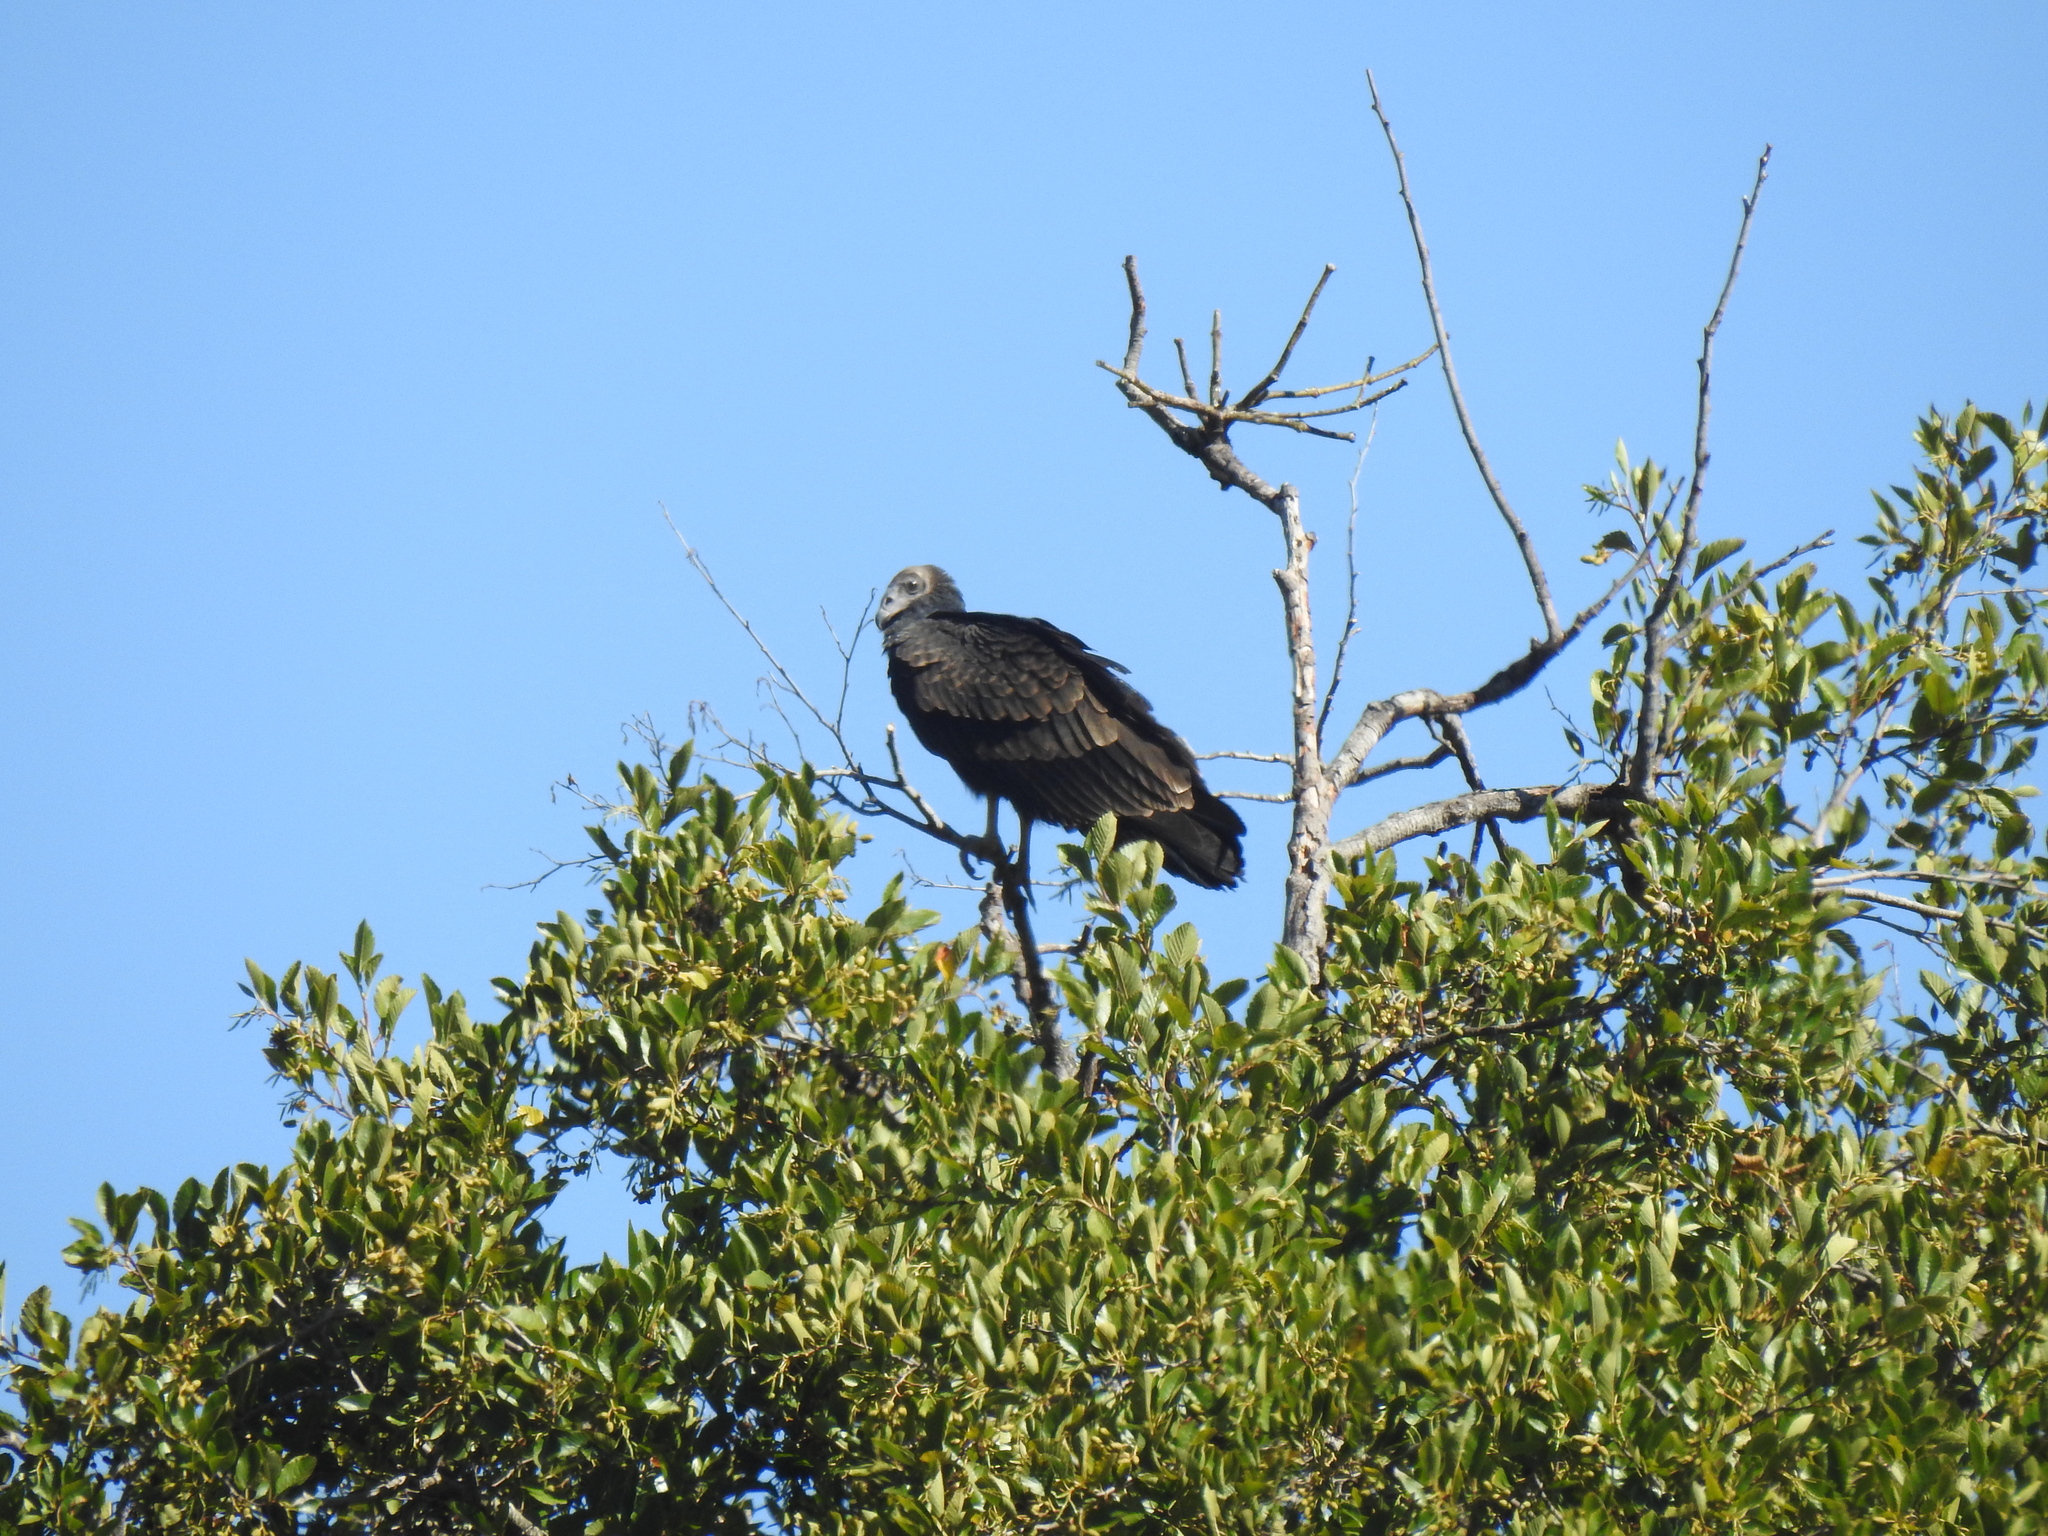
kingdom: Animalia
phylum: Chordata
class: Aves
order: Accipitriformes
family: Cathartidae
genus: Cathartes
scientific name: Cathartes aura
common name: Turkey vulture
